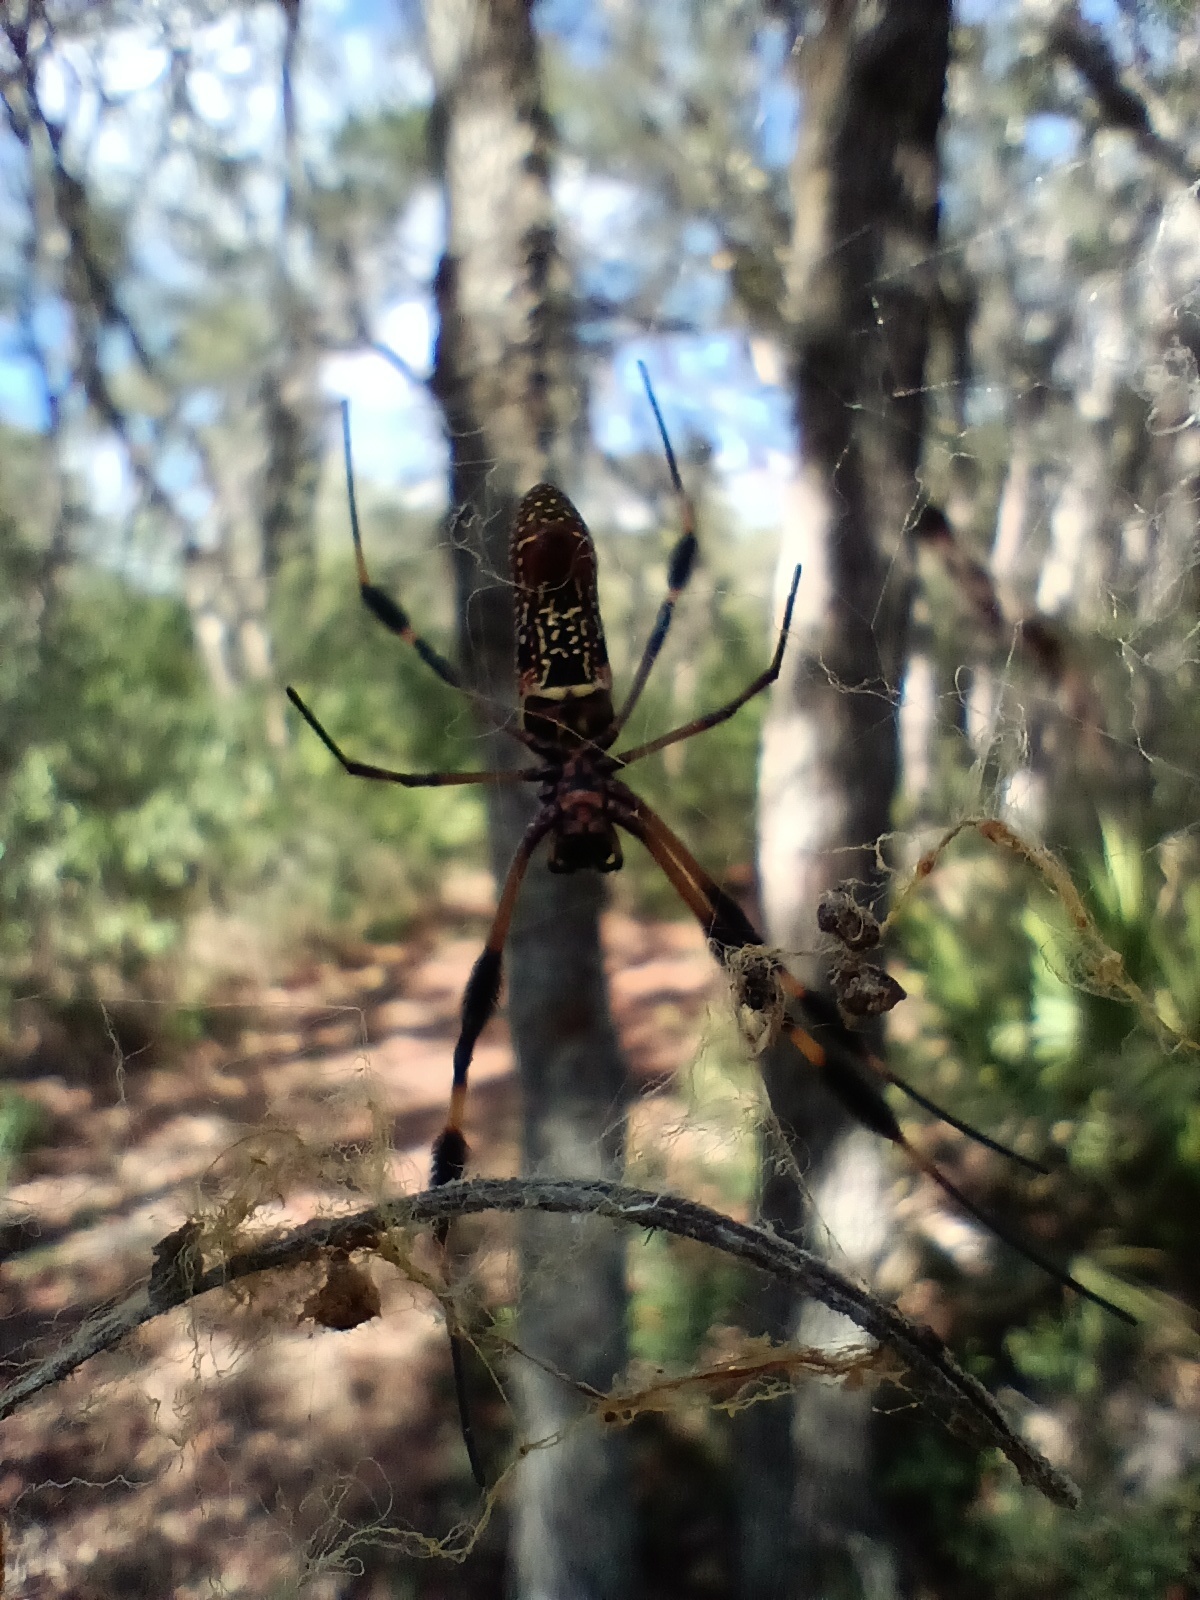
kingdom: Animalia
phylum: Arthropoda
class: Arachnida
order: Araneae
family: Araneidae
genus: Trichonephila
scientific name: Trichonephila clavipes
